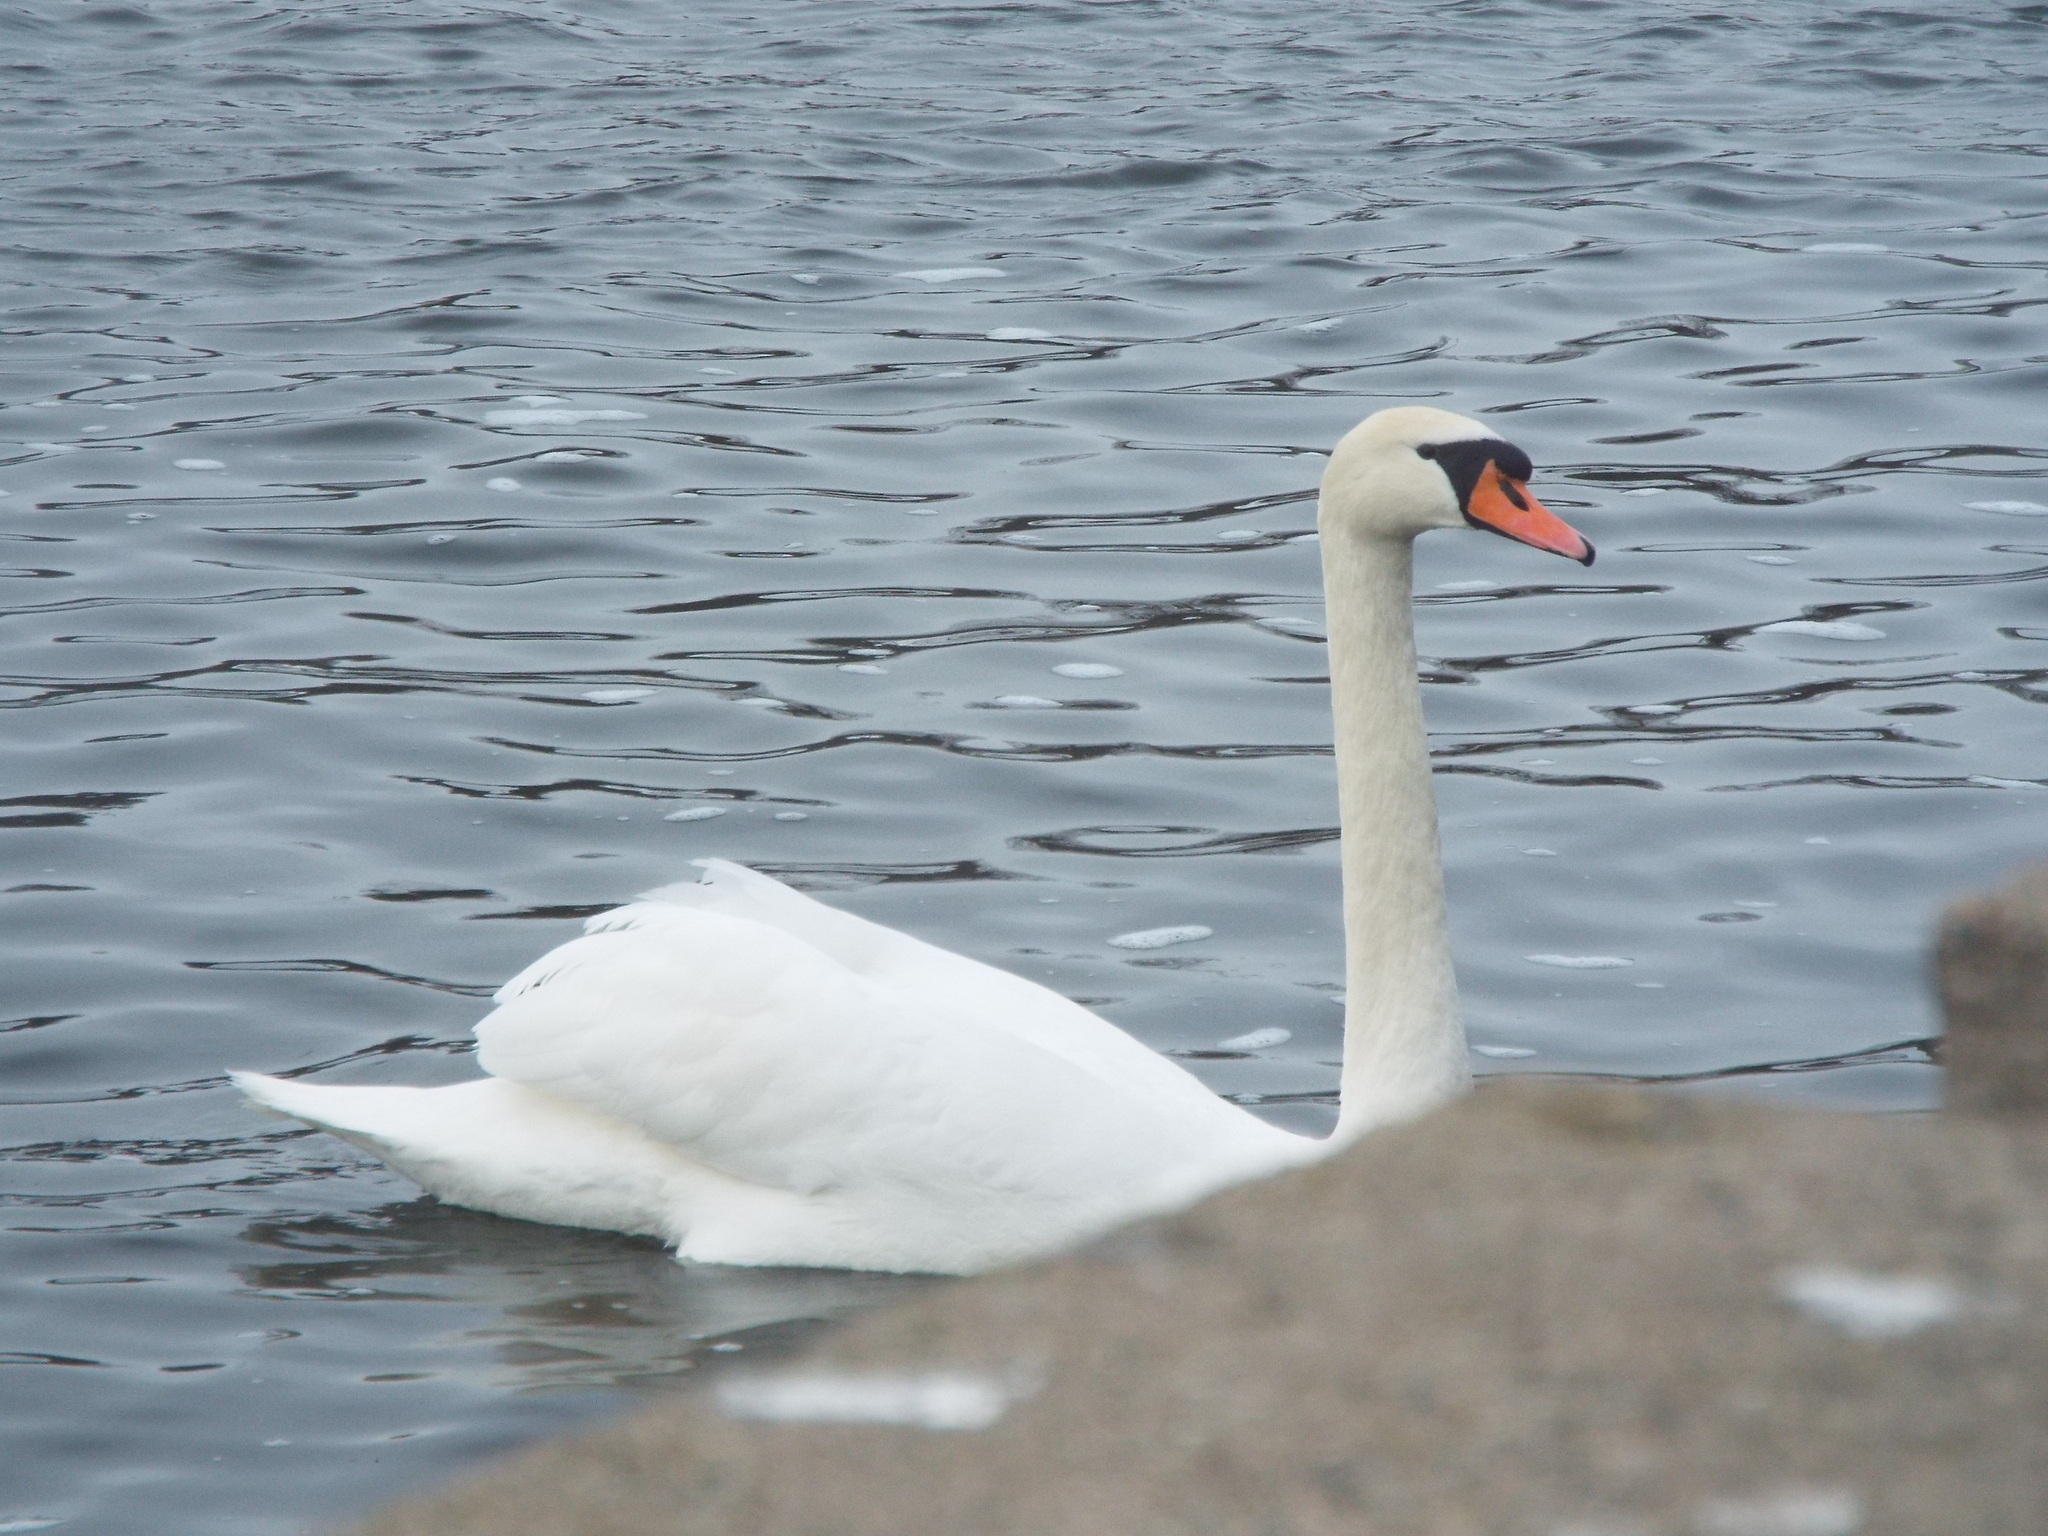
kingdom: Animalia
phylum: Chordata
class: Aves
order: Anseriformes
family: Anatidae
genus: Cygnus
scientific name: Cygnus olor
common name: Mute swan
